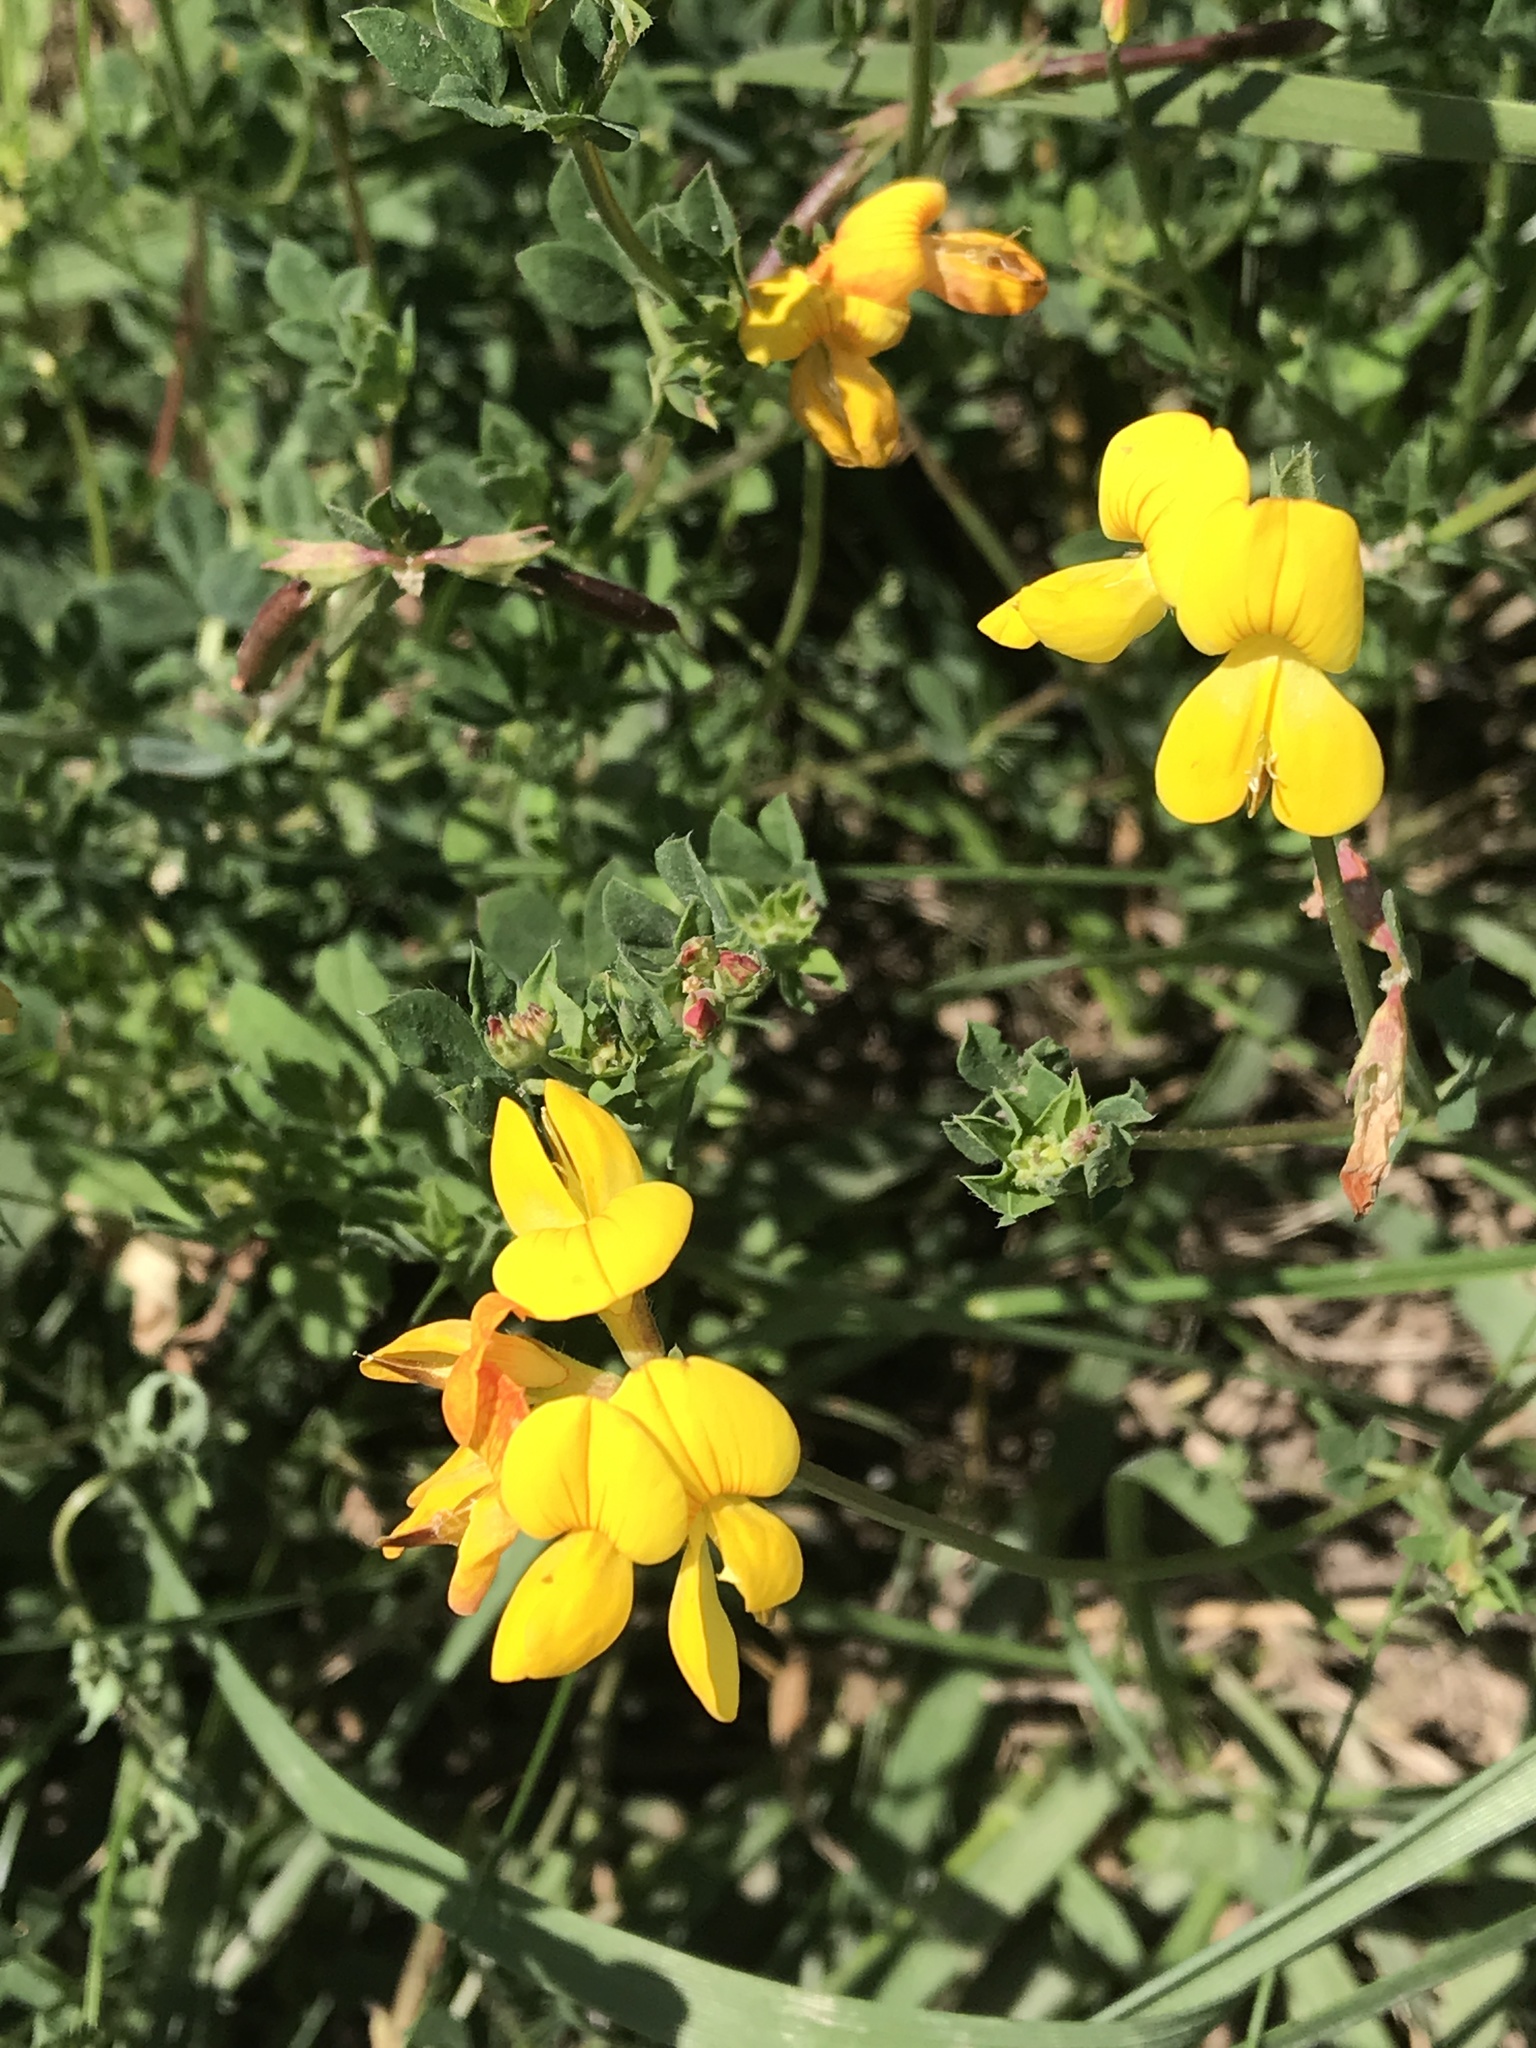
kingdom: Plantae
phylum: Tracheophyta
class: Magnoliopsida
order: Fabales
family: Fabaceae
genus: Lotus
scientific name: Lotus corniculatus
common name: Common bird's-foot-trefoil
